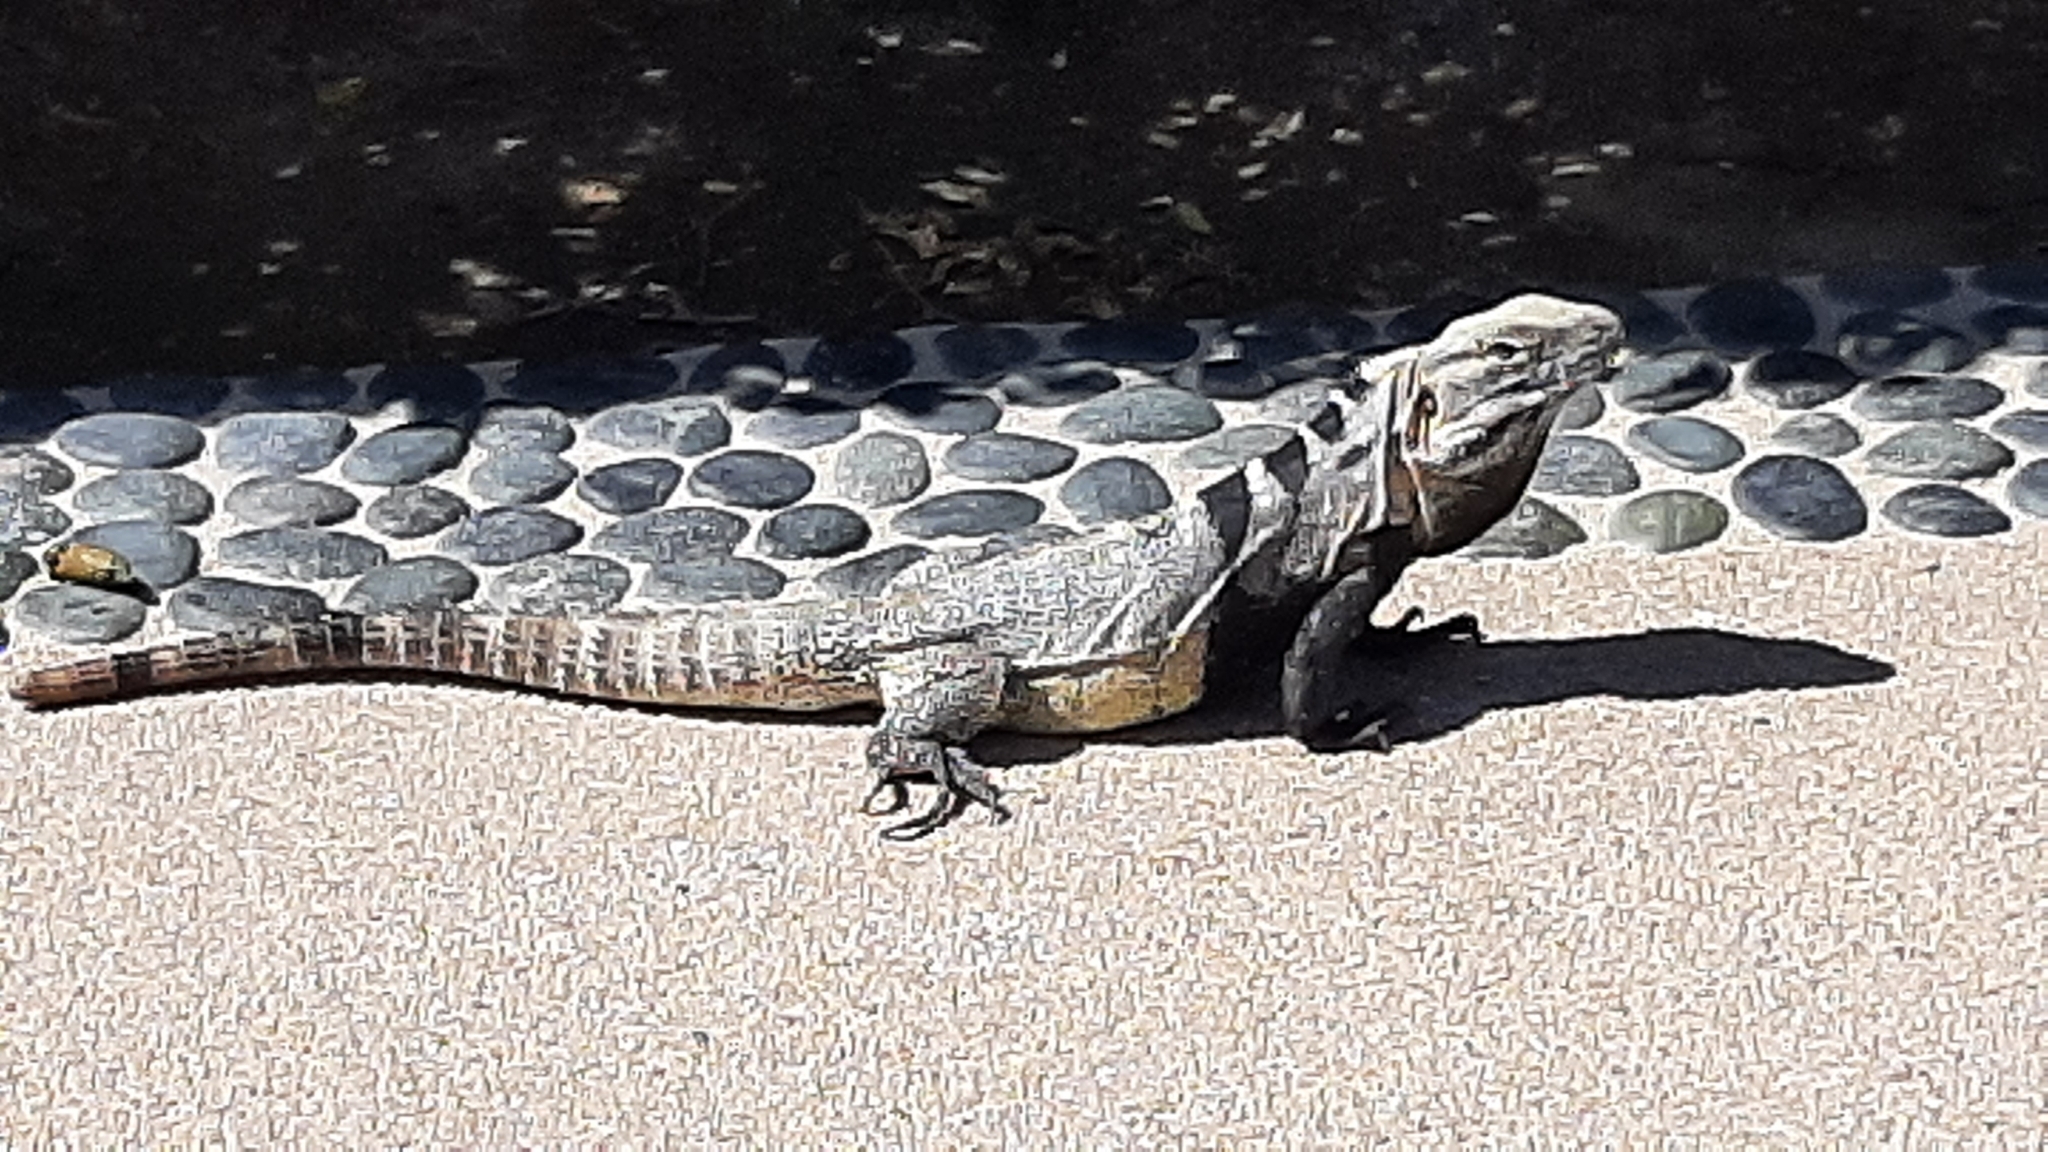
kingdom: Animalia
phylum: Chordata
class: Squamata
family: Iguanidae
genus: Ctenosaura
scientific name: Ctenosaura hemilopha
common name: Baja california spiny- tailed iguana
